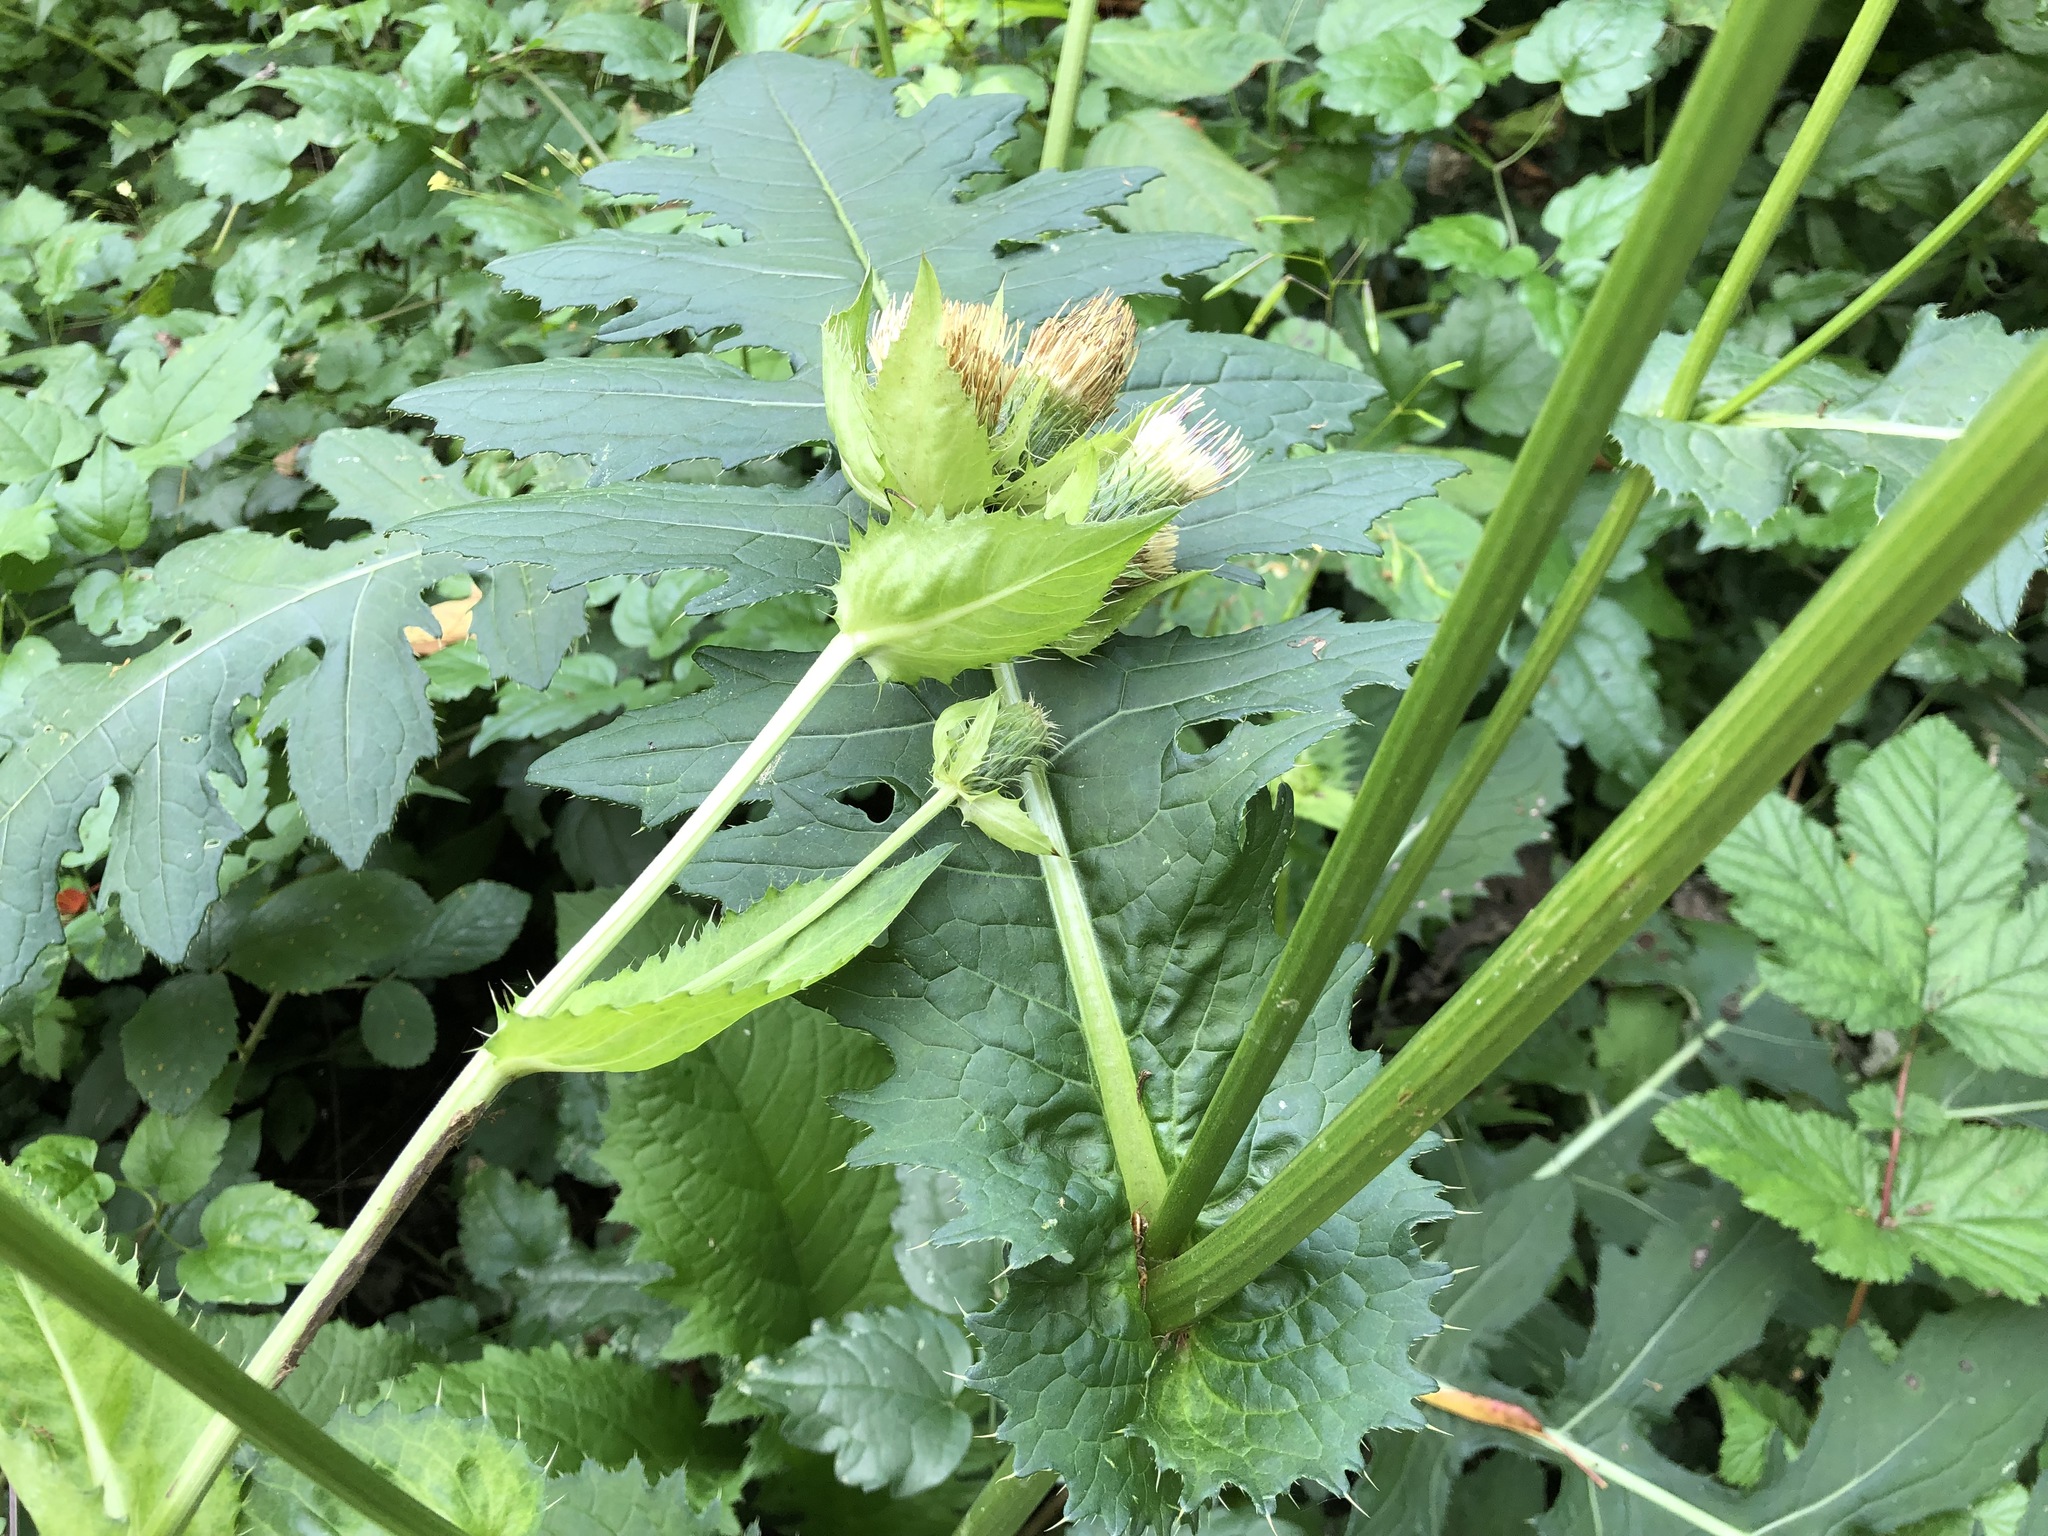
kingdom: Plantae
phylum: Tracheophyta
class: Magnoliopsida
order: Asterales
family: Asteraceae
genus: Cirsium
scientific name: Cirsium oleraceum
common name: Cabbage thistle
